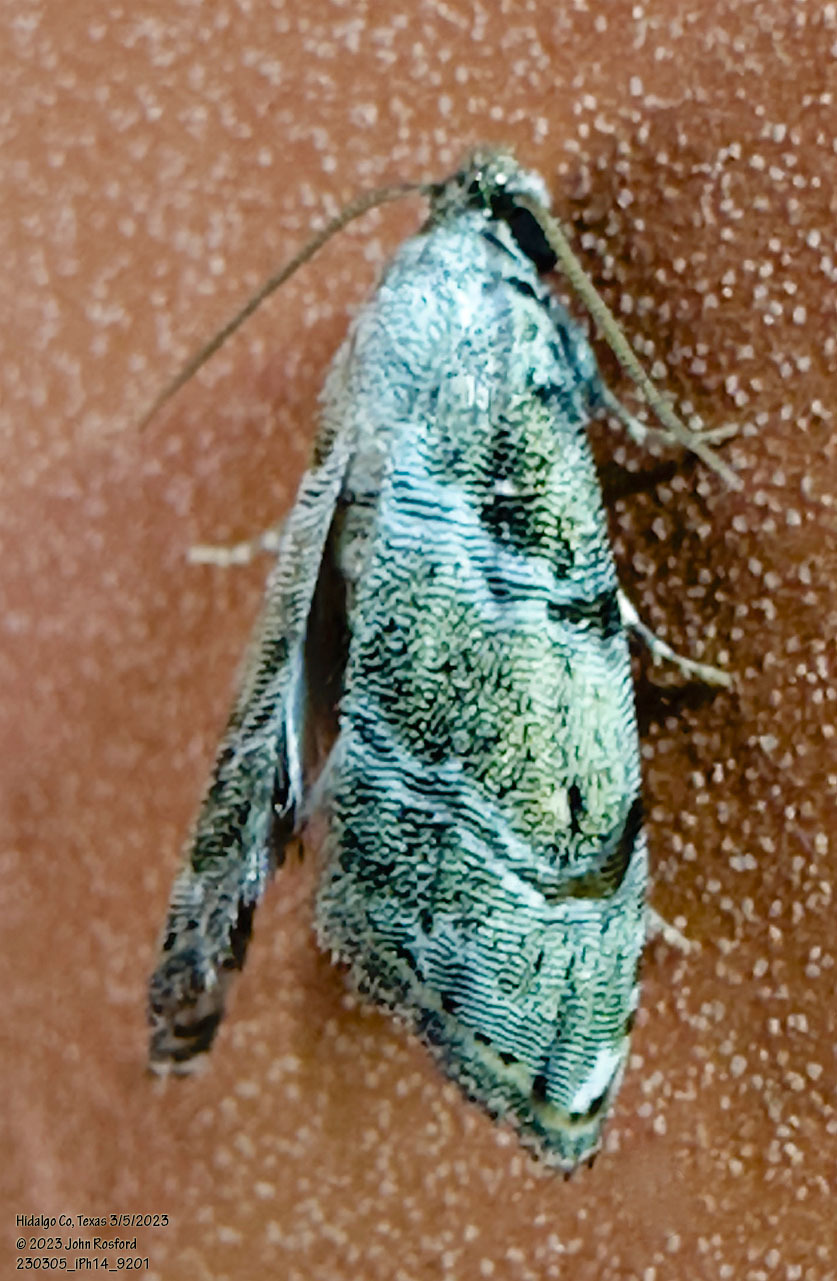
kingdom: Animalia
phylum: Arthropoda
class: Insecta
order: Lepidoptera
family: Noctuidae
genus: Abablemma
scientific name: Abablemma bilineata
